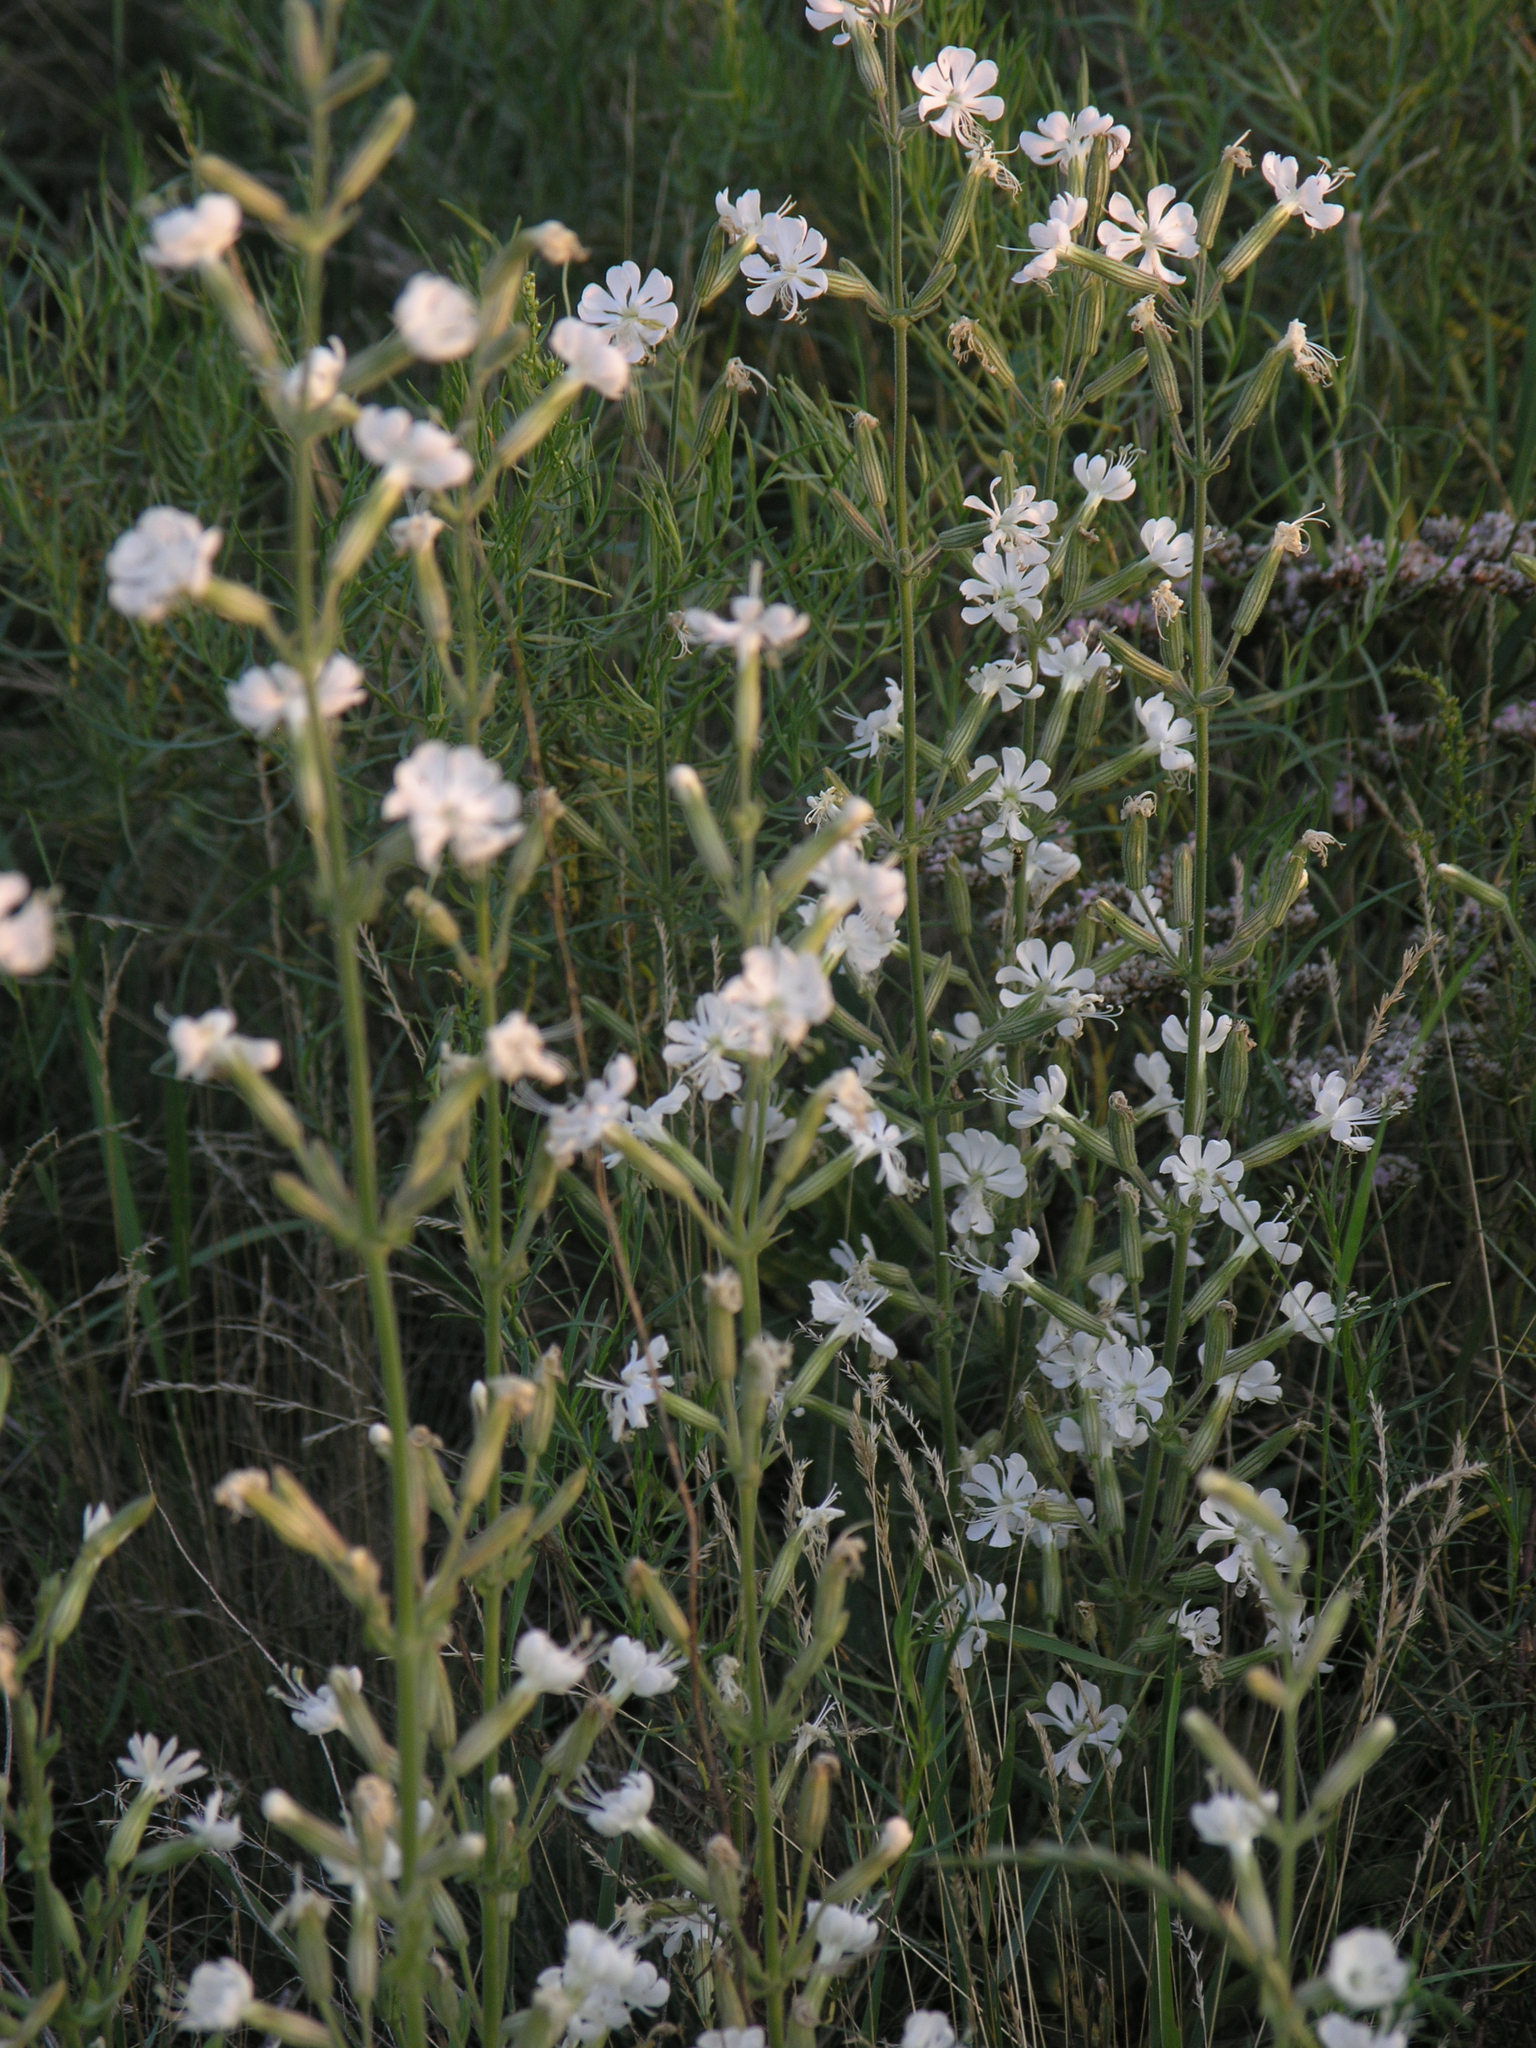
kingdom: Plantae
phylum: Tracheophyta
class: Magnoliopsida
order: Caryophyllales
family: Caryophyllaceae
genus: Silene
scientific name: Silene viscosa
